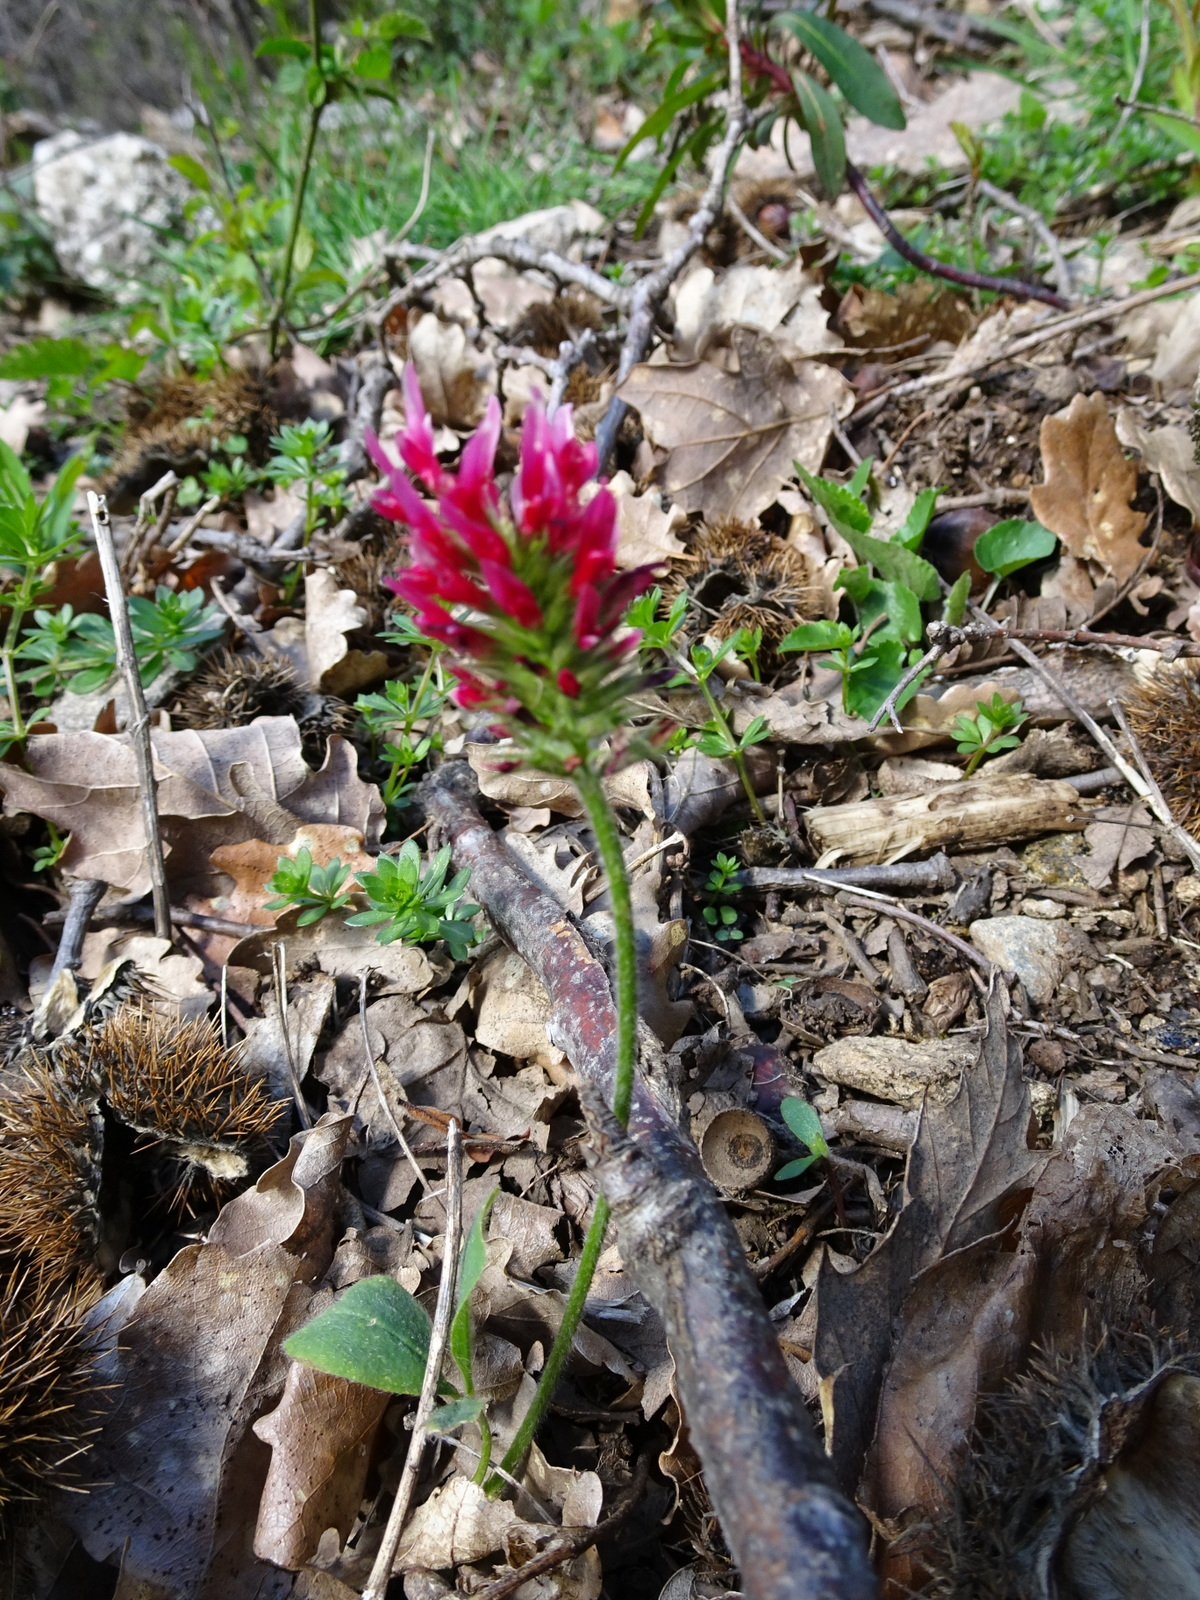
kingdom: Plantae
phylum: Tracheophyta
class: Magnoliopsida
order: Fabales
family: Fabaceae
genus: Trifolium
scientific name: Trifolium incarnatum
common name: Crimson clover
